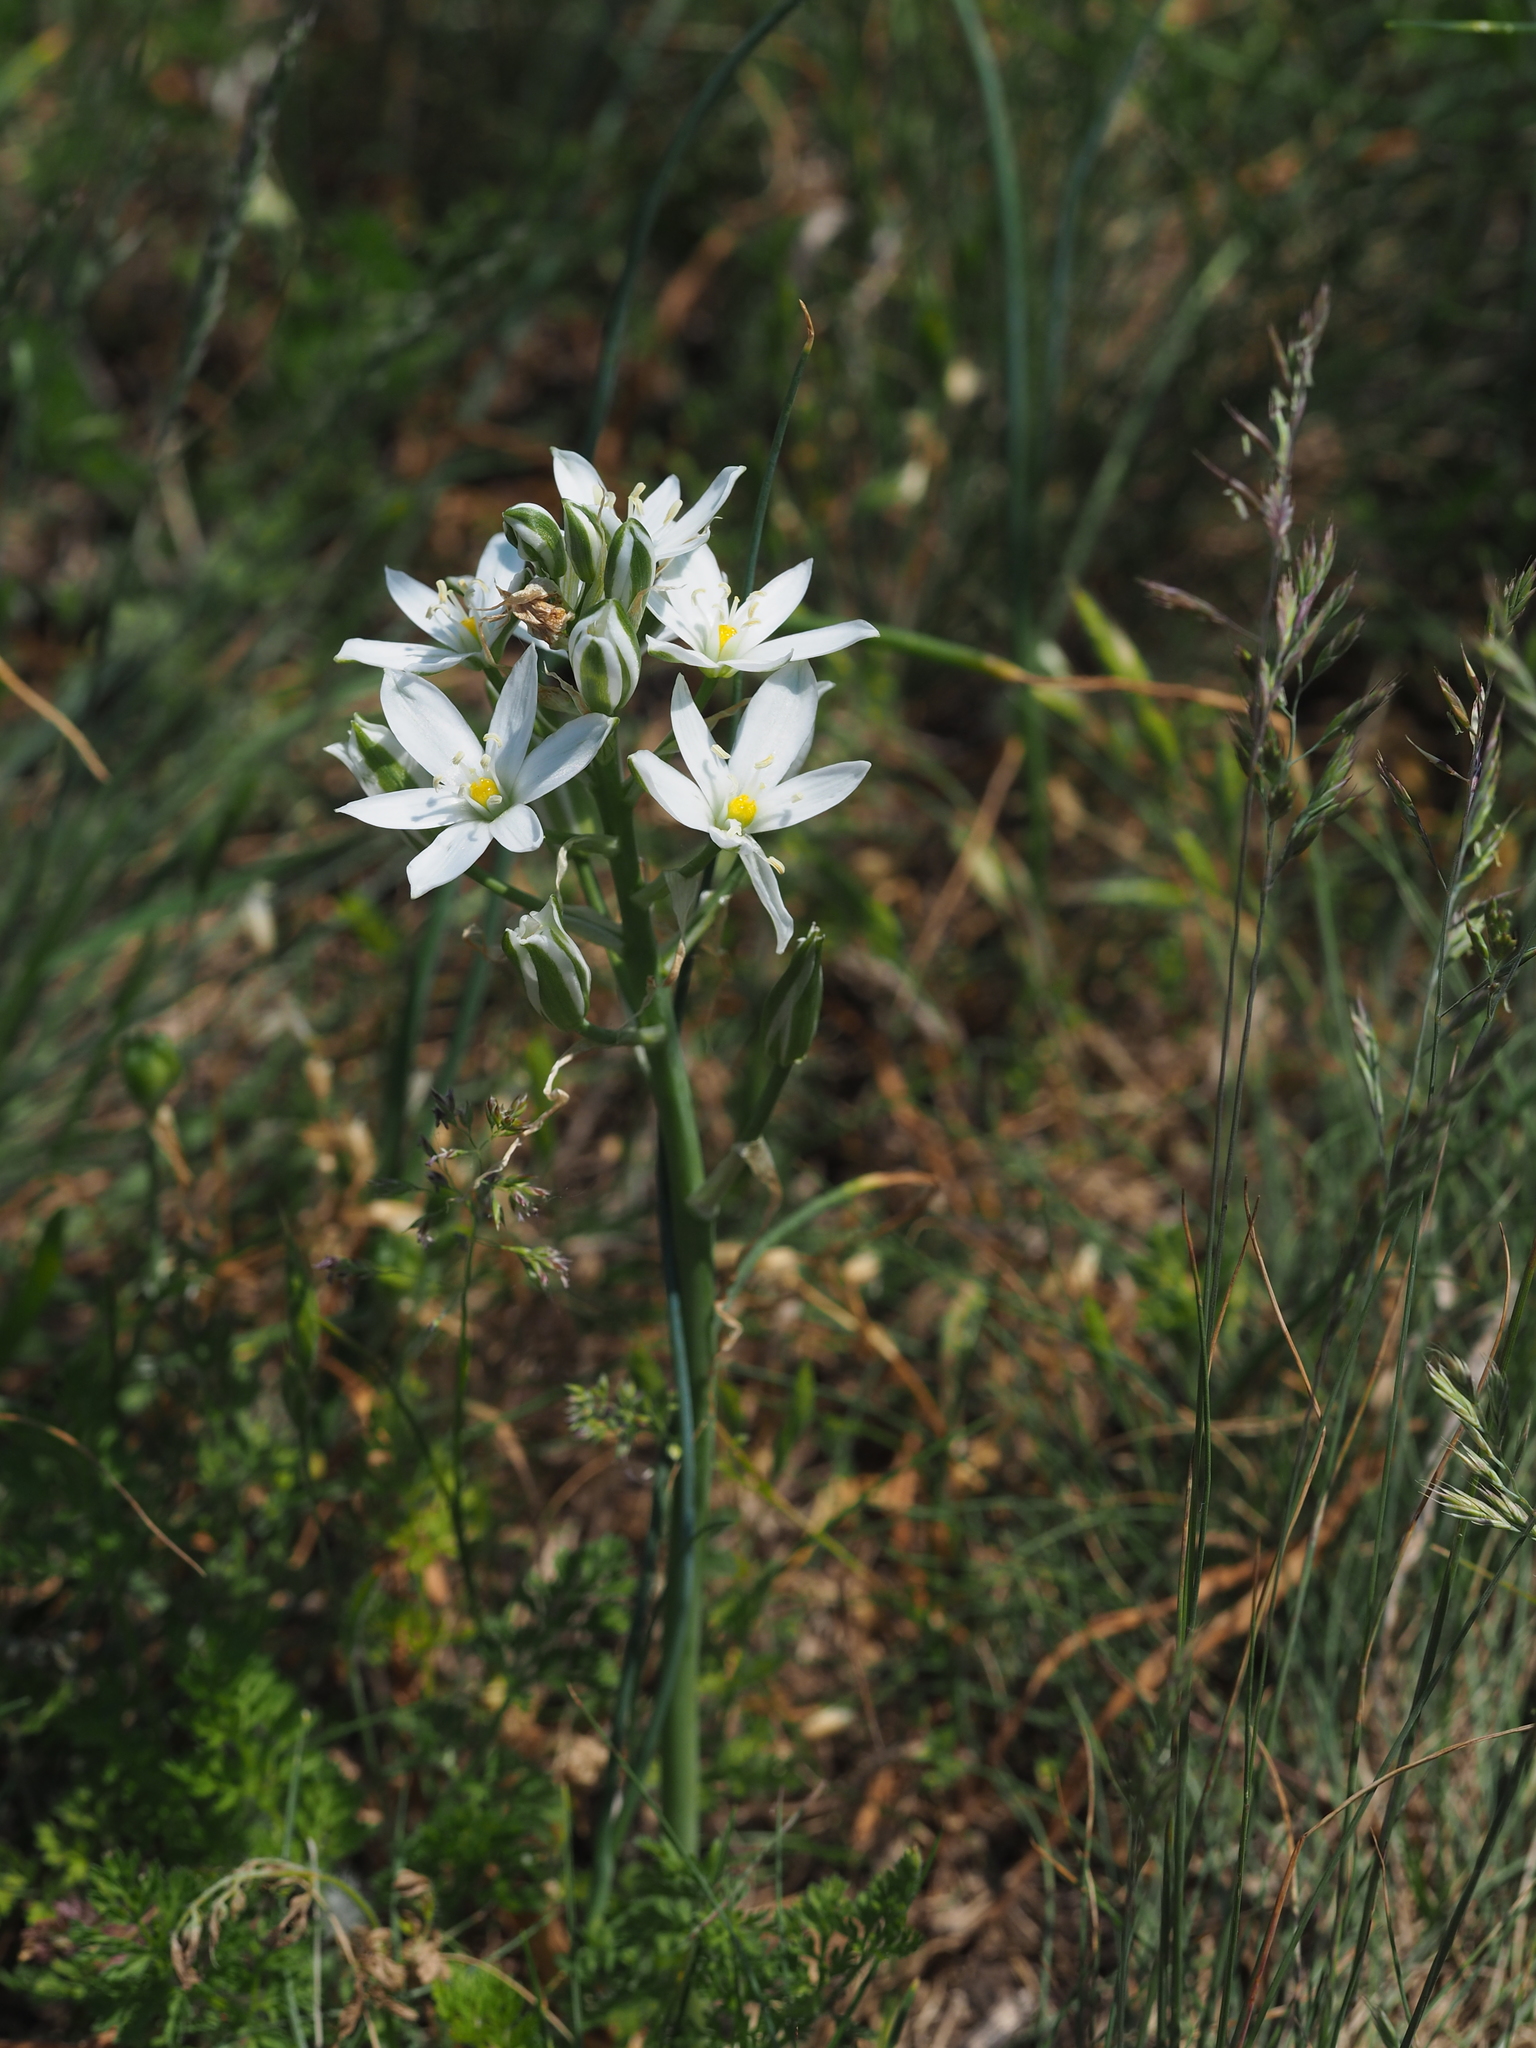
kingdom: Plantae
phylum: Tracheophyta
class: Liliopsida
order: Asparagales
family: Asparagaceae
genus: Ornithogalum
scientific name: Ornithogalum comosum
